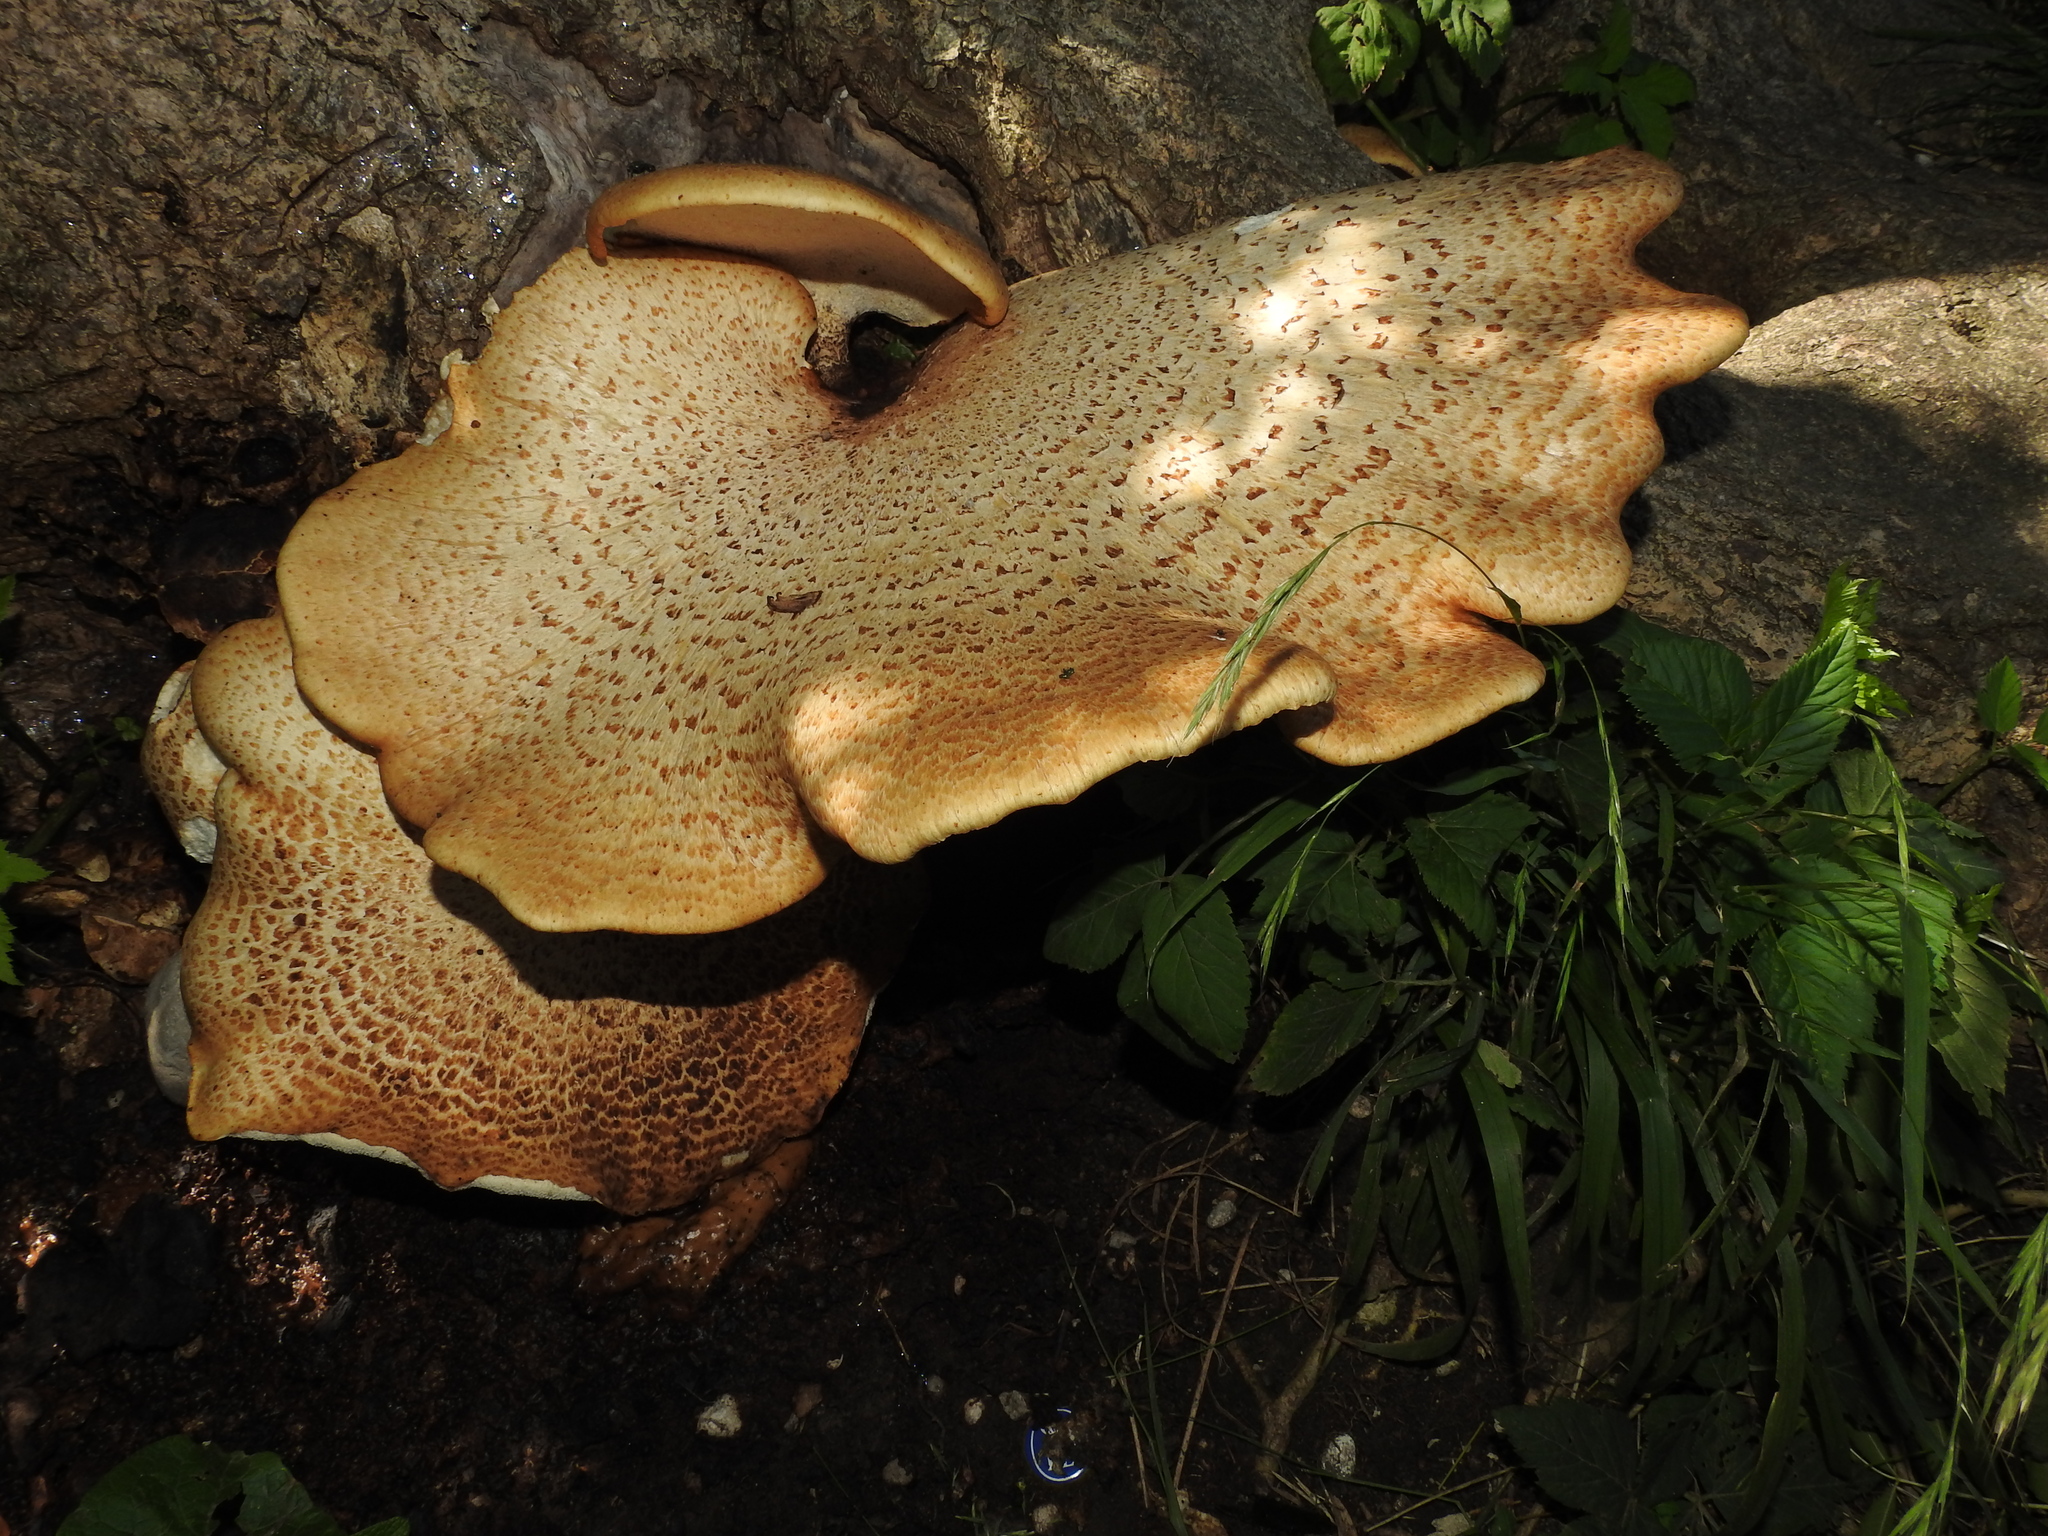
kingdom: Fungi
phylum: Basidiomycota
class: Agaricomycetes
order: Polyporales
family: Polyporaceae
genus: Cerioporus
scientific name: Cerioporus squamosus
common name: Dryad's saddle
